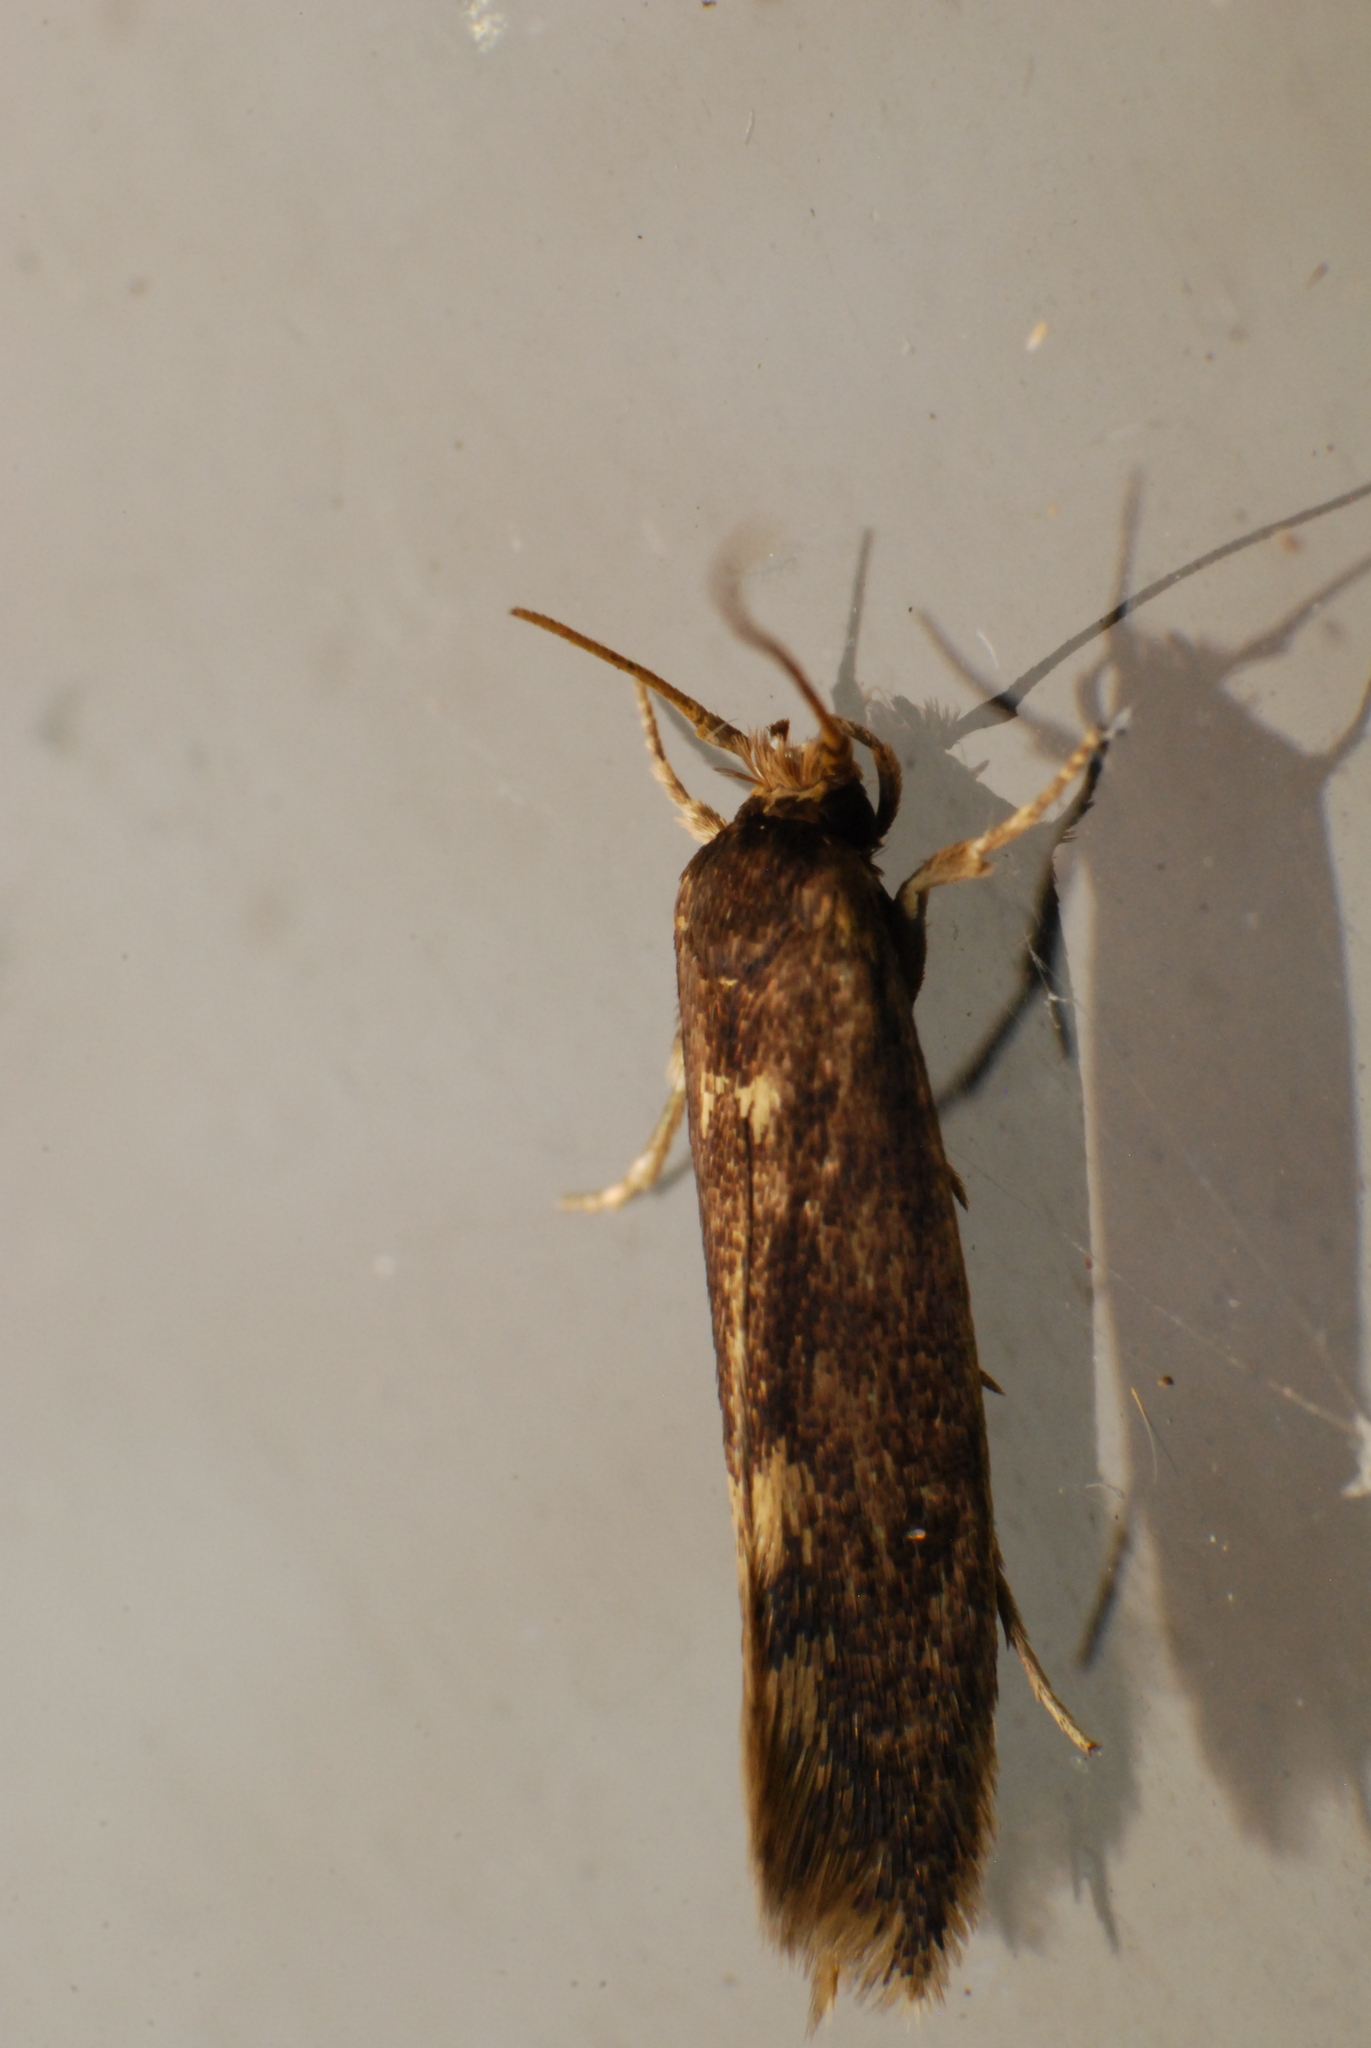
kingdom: Animalia
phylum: Arthropoda
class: Insecta
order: Lepidoptera
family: Tineidae
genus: Opogona
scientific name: Opogona omoscopa
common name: Moth
